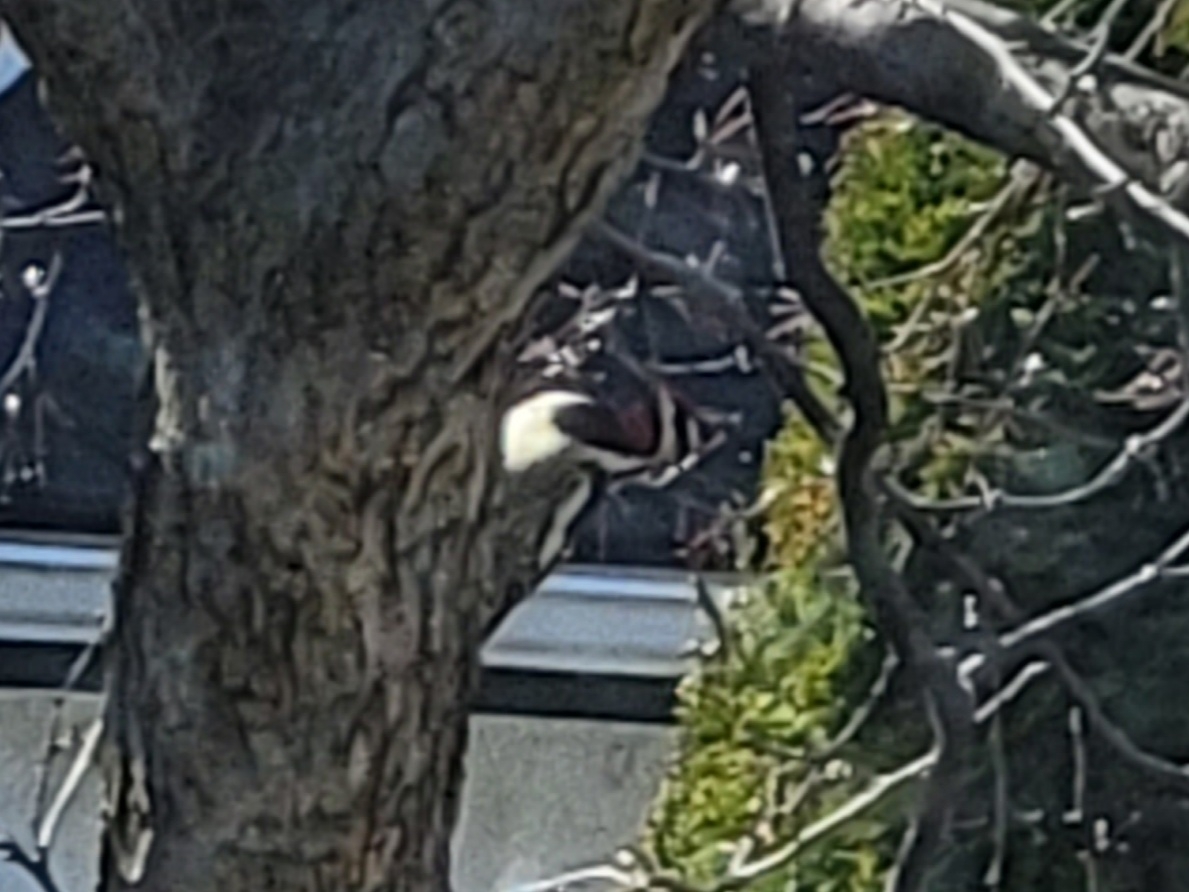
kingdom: Animalia
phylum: Chordata
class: Aves
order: Piciformes
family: Picidae
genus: Sphyrapicus
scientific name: Sphyrapicus varius
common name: Yellow-bellied sapsucker
